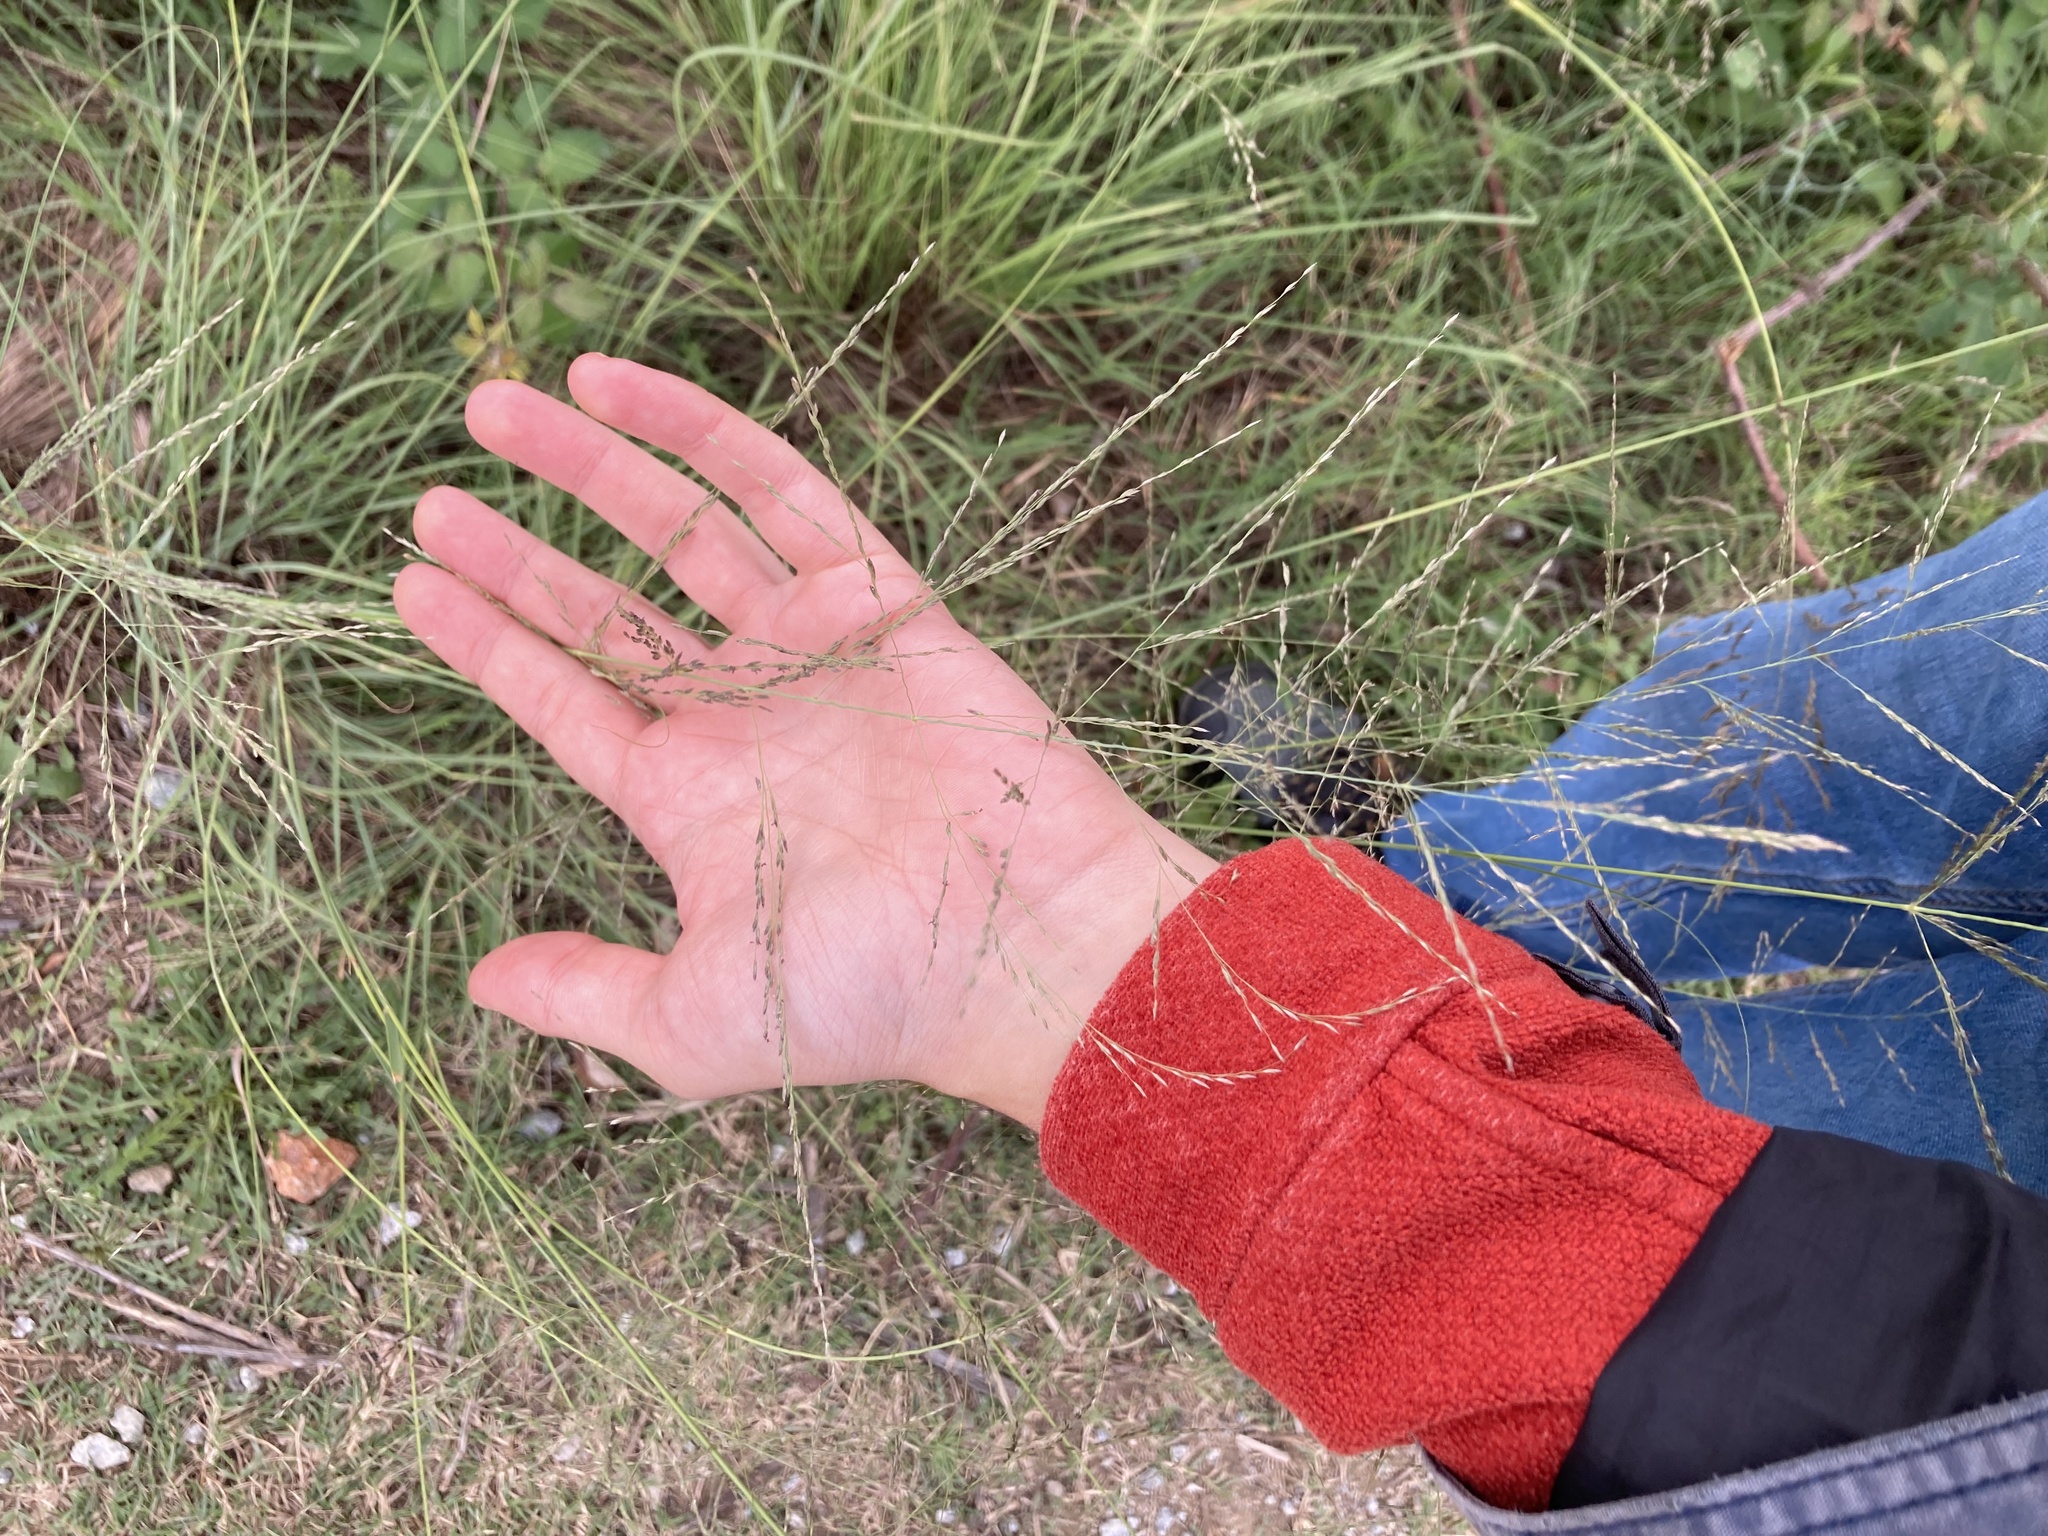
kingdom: Plantae
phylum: Tracheophyta
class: Liliopsida
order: Poales
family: Poaceae
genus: Eragrostis
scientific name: Eragrostis curvula
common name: African love-grass
